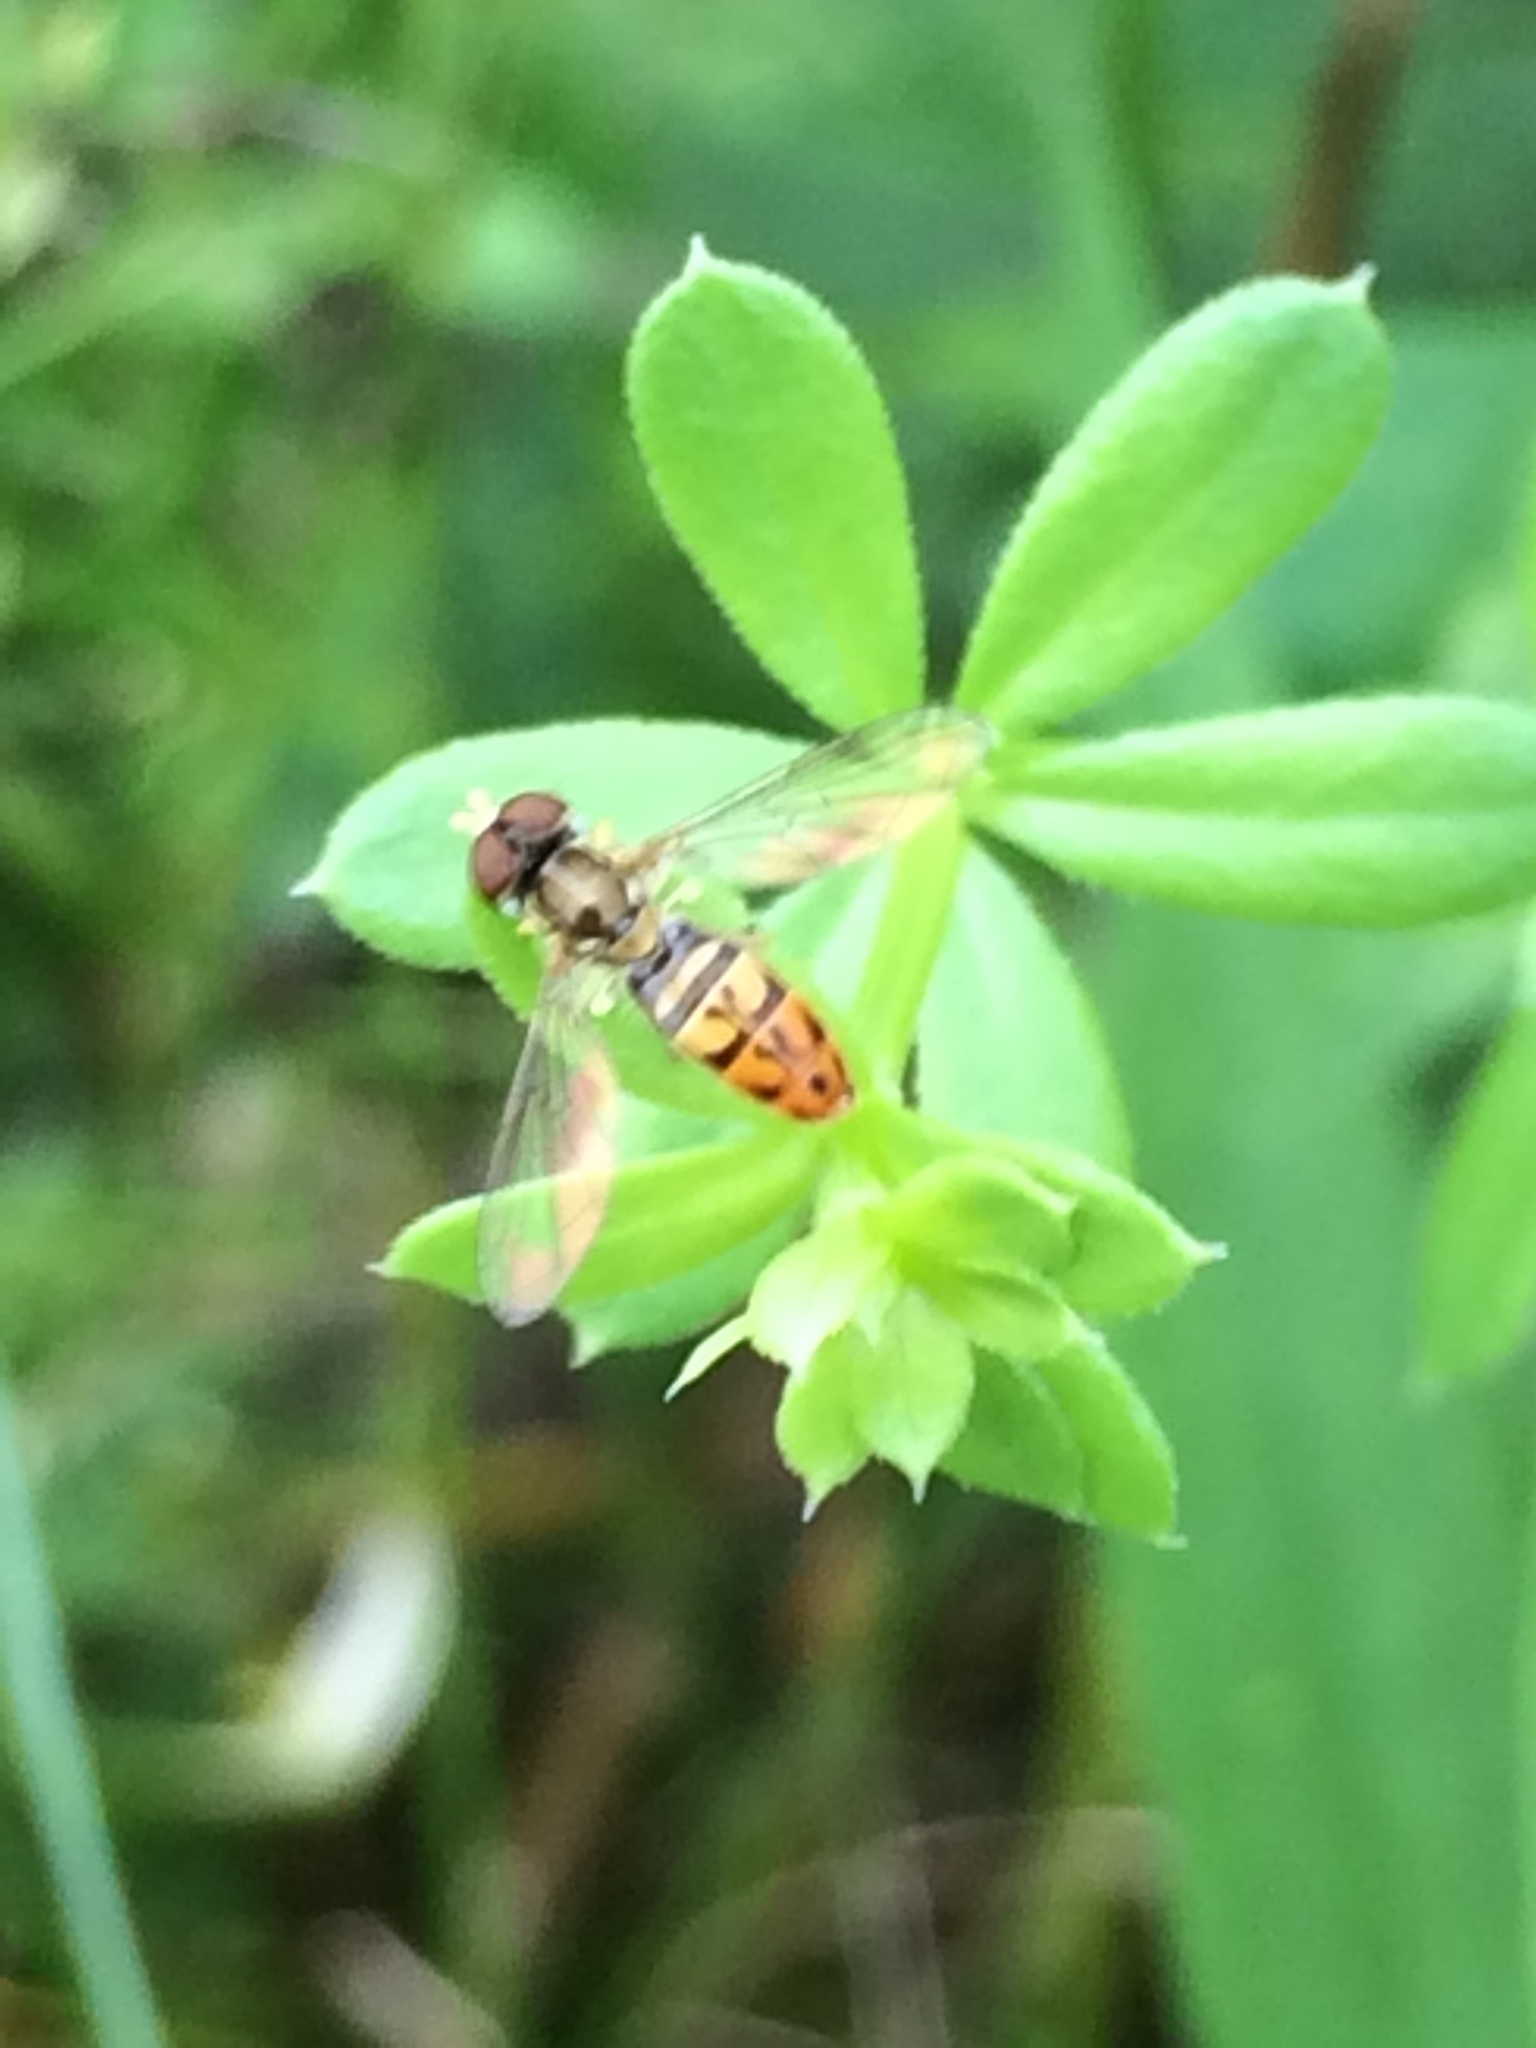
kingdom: Animalia
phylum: Arthropoda
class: Insecta
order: Diptera
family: Syrphidae
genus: Toxomerus
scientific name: Toxomerus marginatus
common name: Syrphid fly
